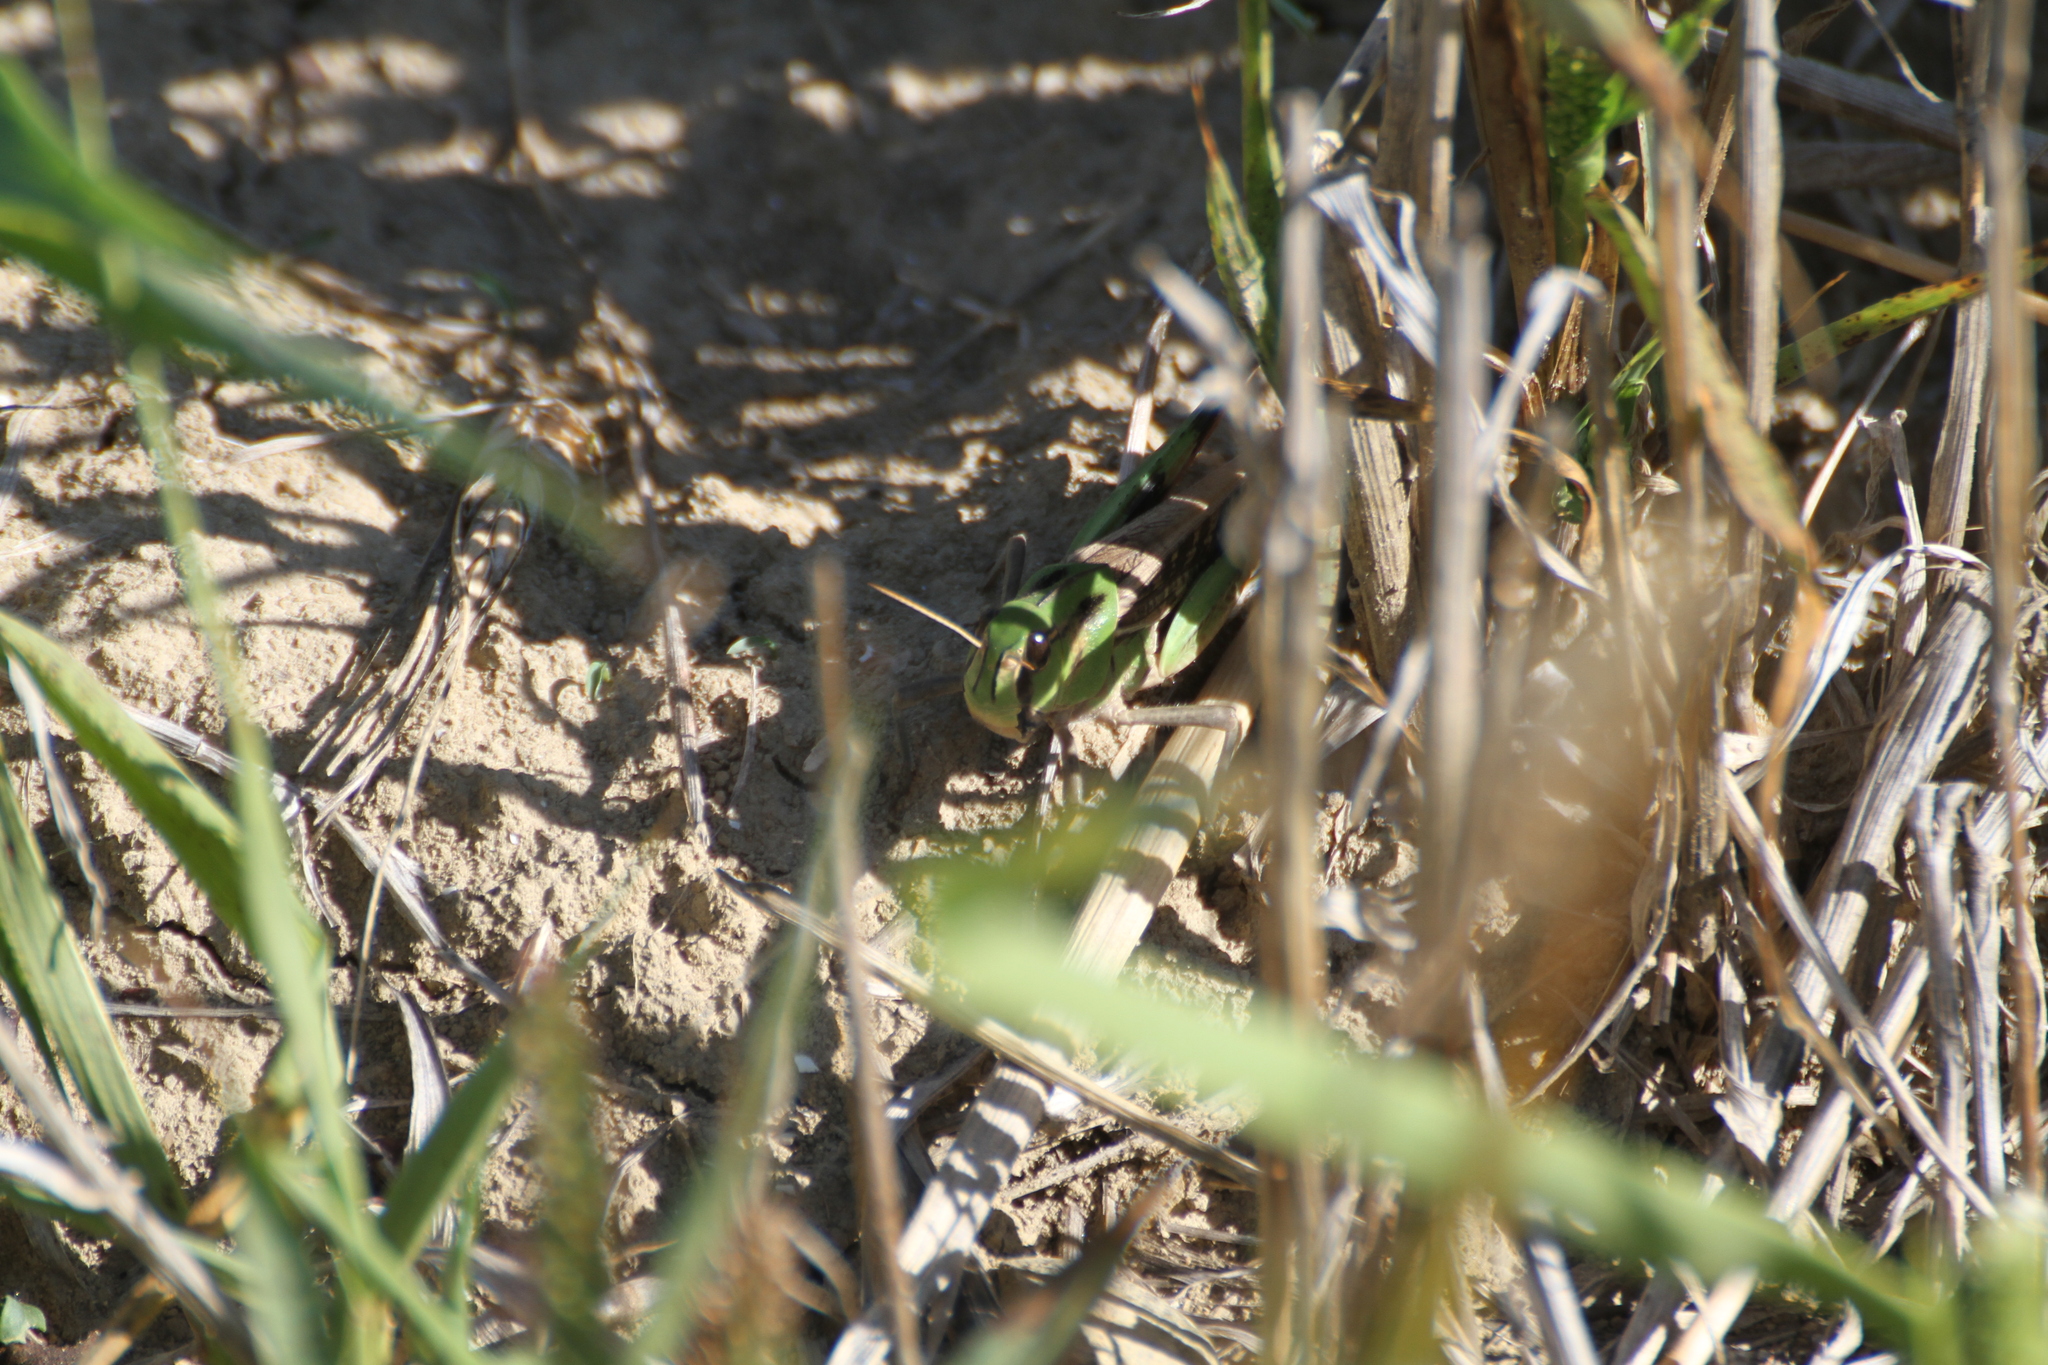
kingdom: Animalia
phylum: Arthropoda
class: Insecta
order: Orthoptera
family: Acrididae
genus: Locusta
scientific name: Locusta migratoria
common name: Migratory locust
